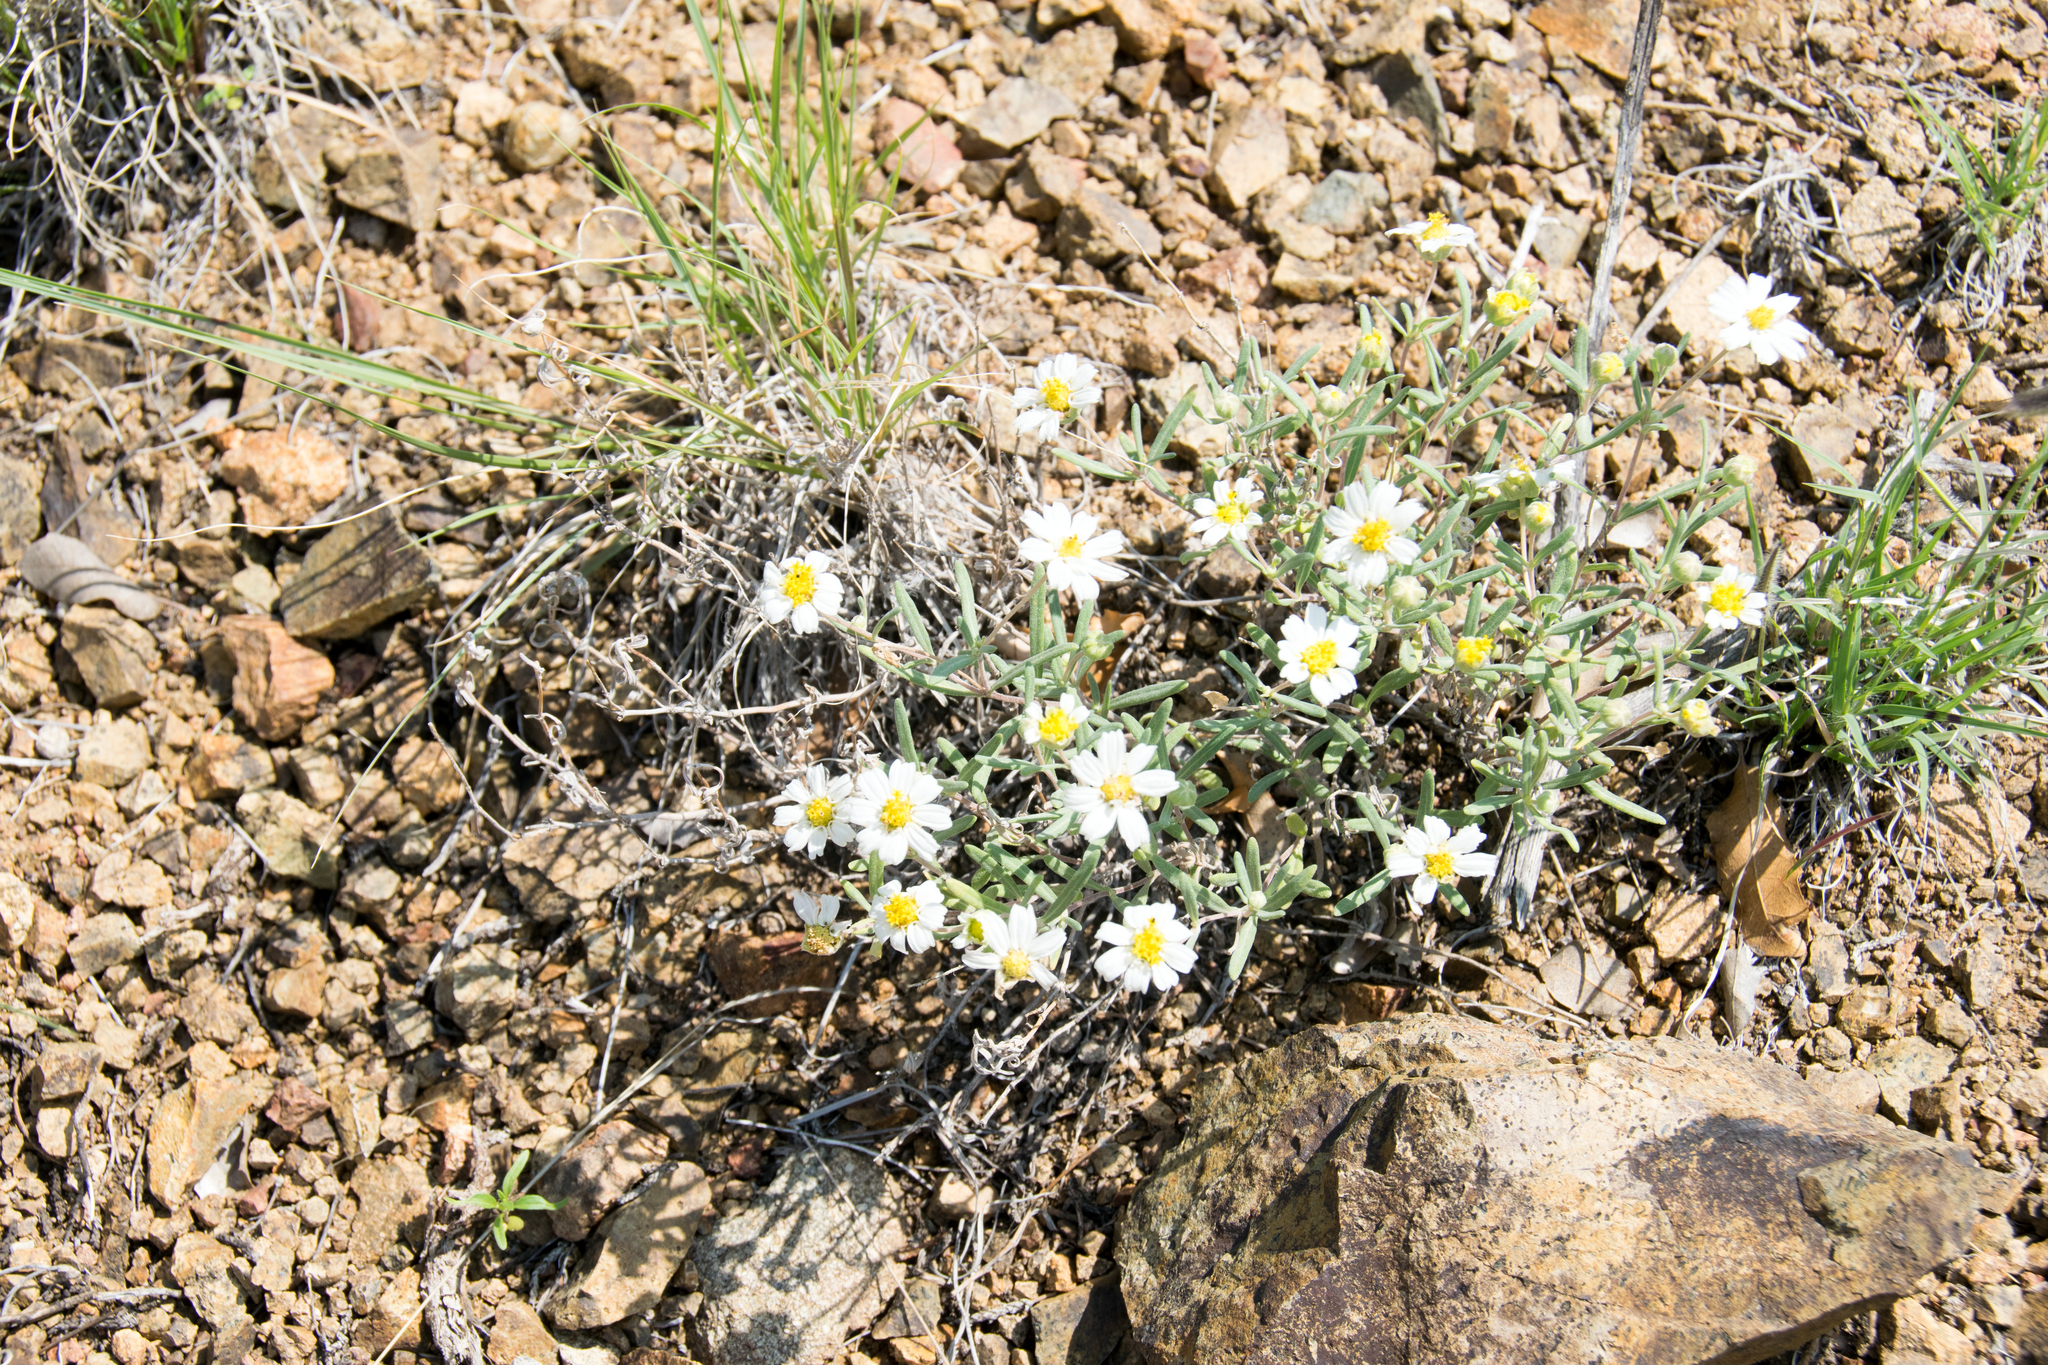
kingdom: Plantae
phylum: Tracheophyta
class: Magnoliopsida
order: Asterales
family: Asteraceae
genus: Melampodium
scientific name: Melampodium leucanthum
